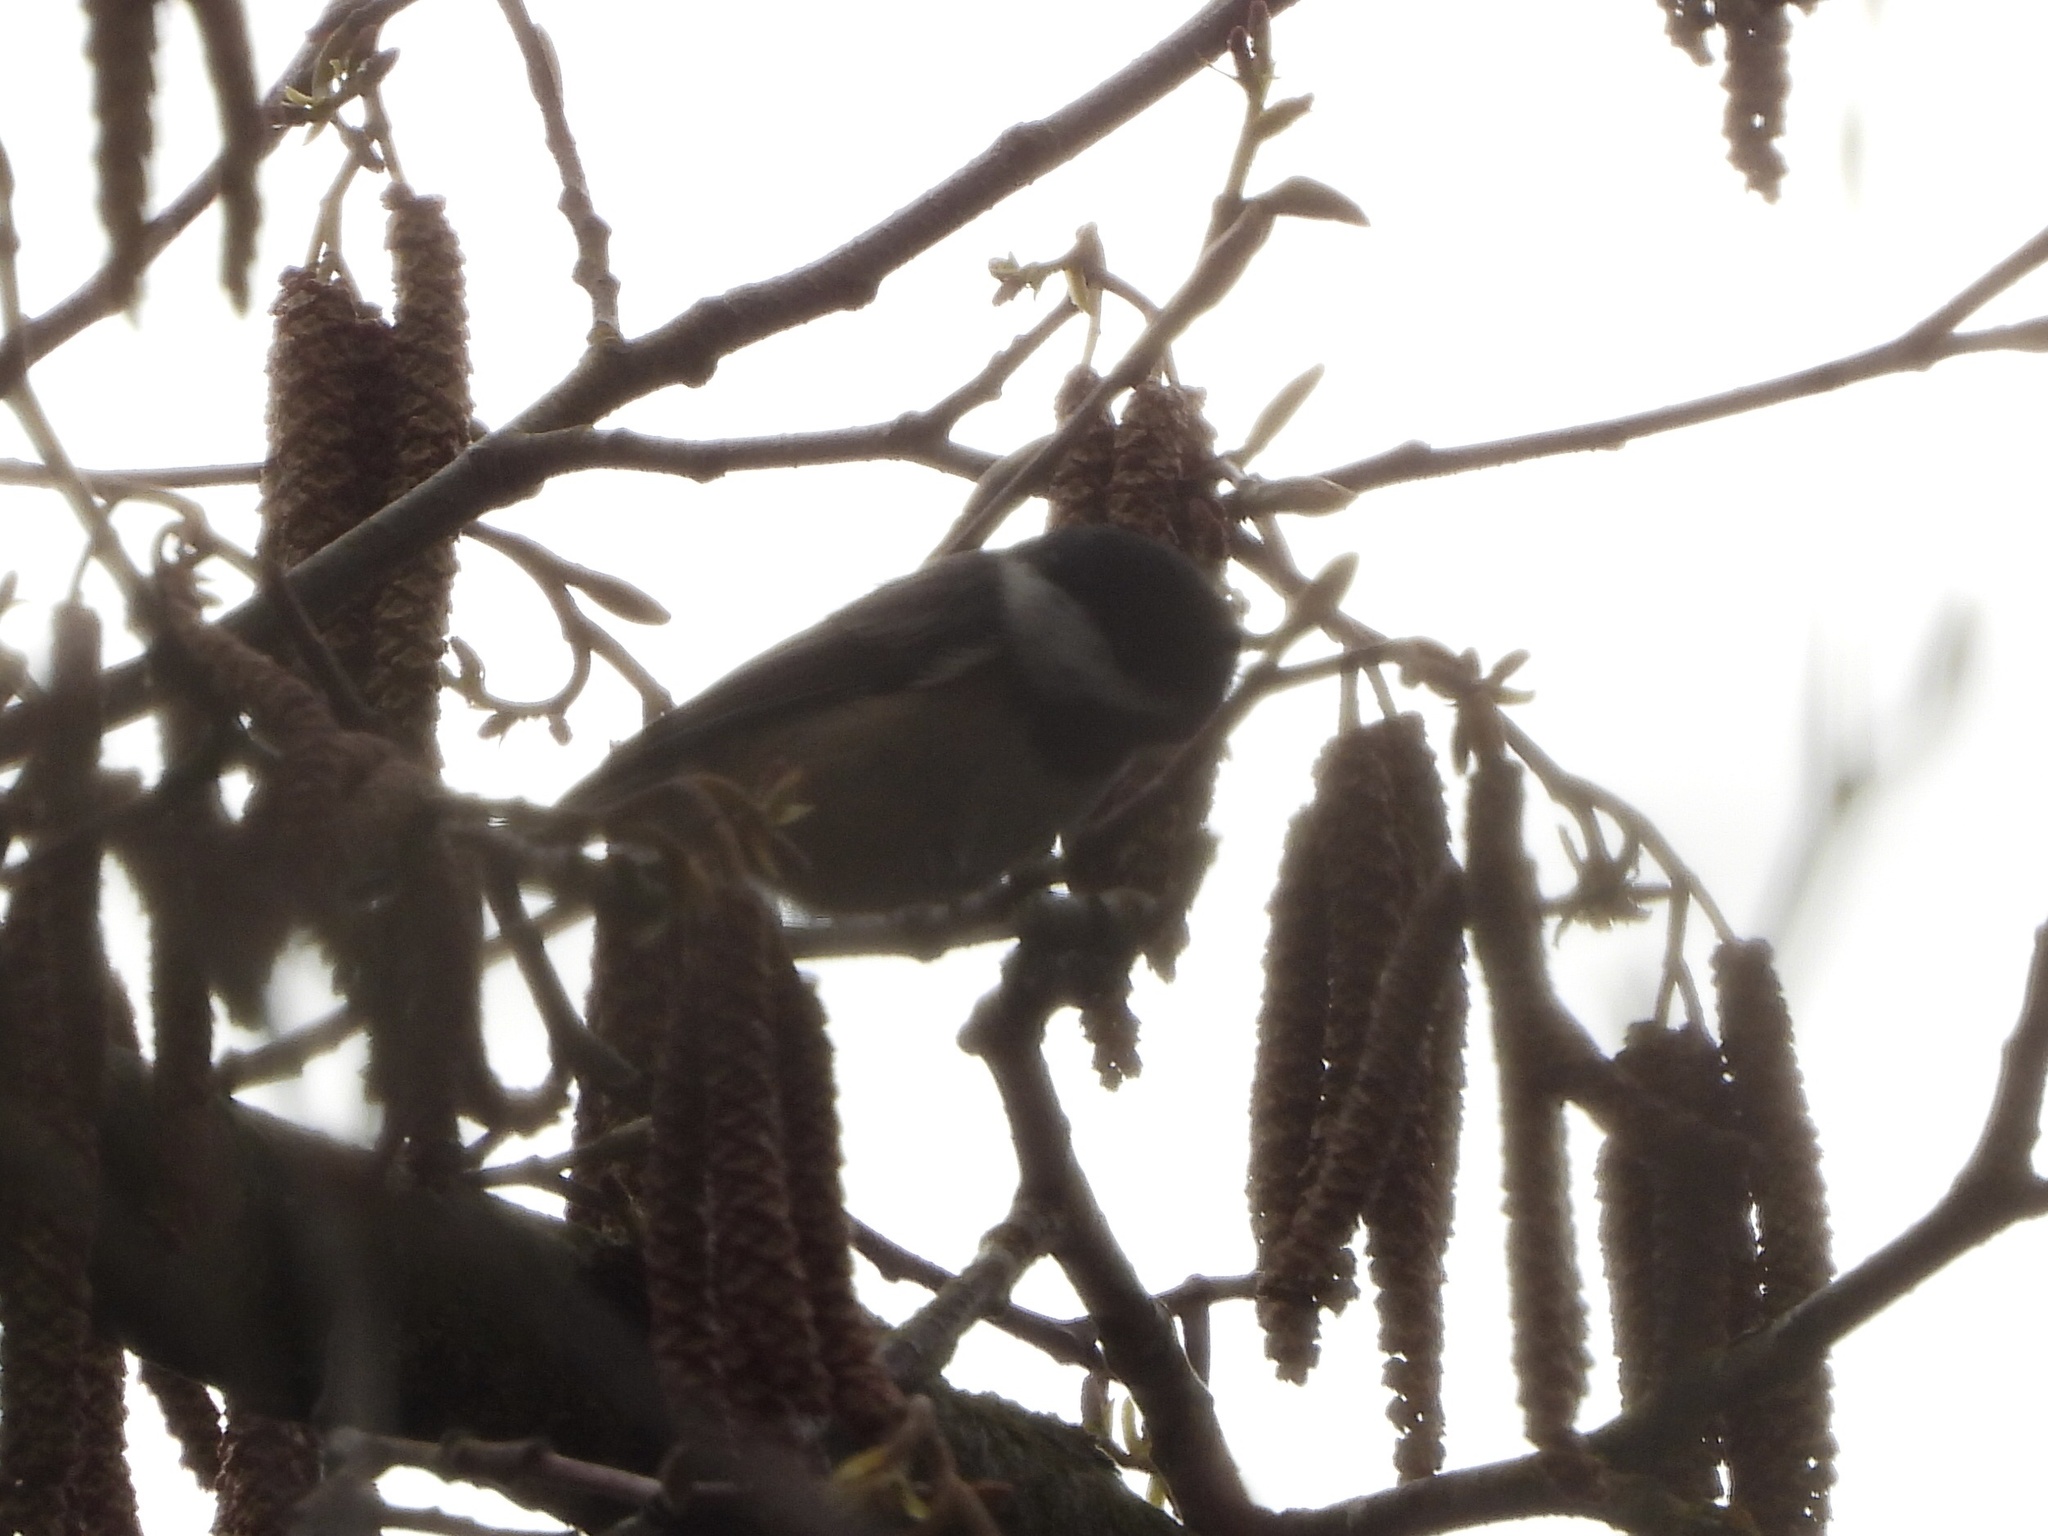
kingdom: Animalia
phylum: Chordata
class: Aves
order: Passeriformes
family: Paridae
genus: Poecile
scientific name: Poecile atricapillus
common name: Black-capped chickadee
